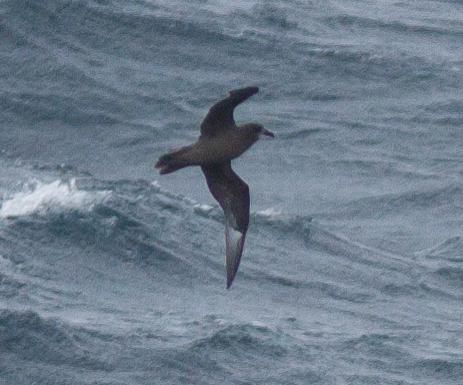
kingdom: Animalia
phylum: Chordata
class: Aves
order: Procellariiformes
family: Procellariidae
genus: Pterodroma
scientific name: Pterodroma ultima
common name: Murphy's petrel
